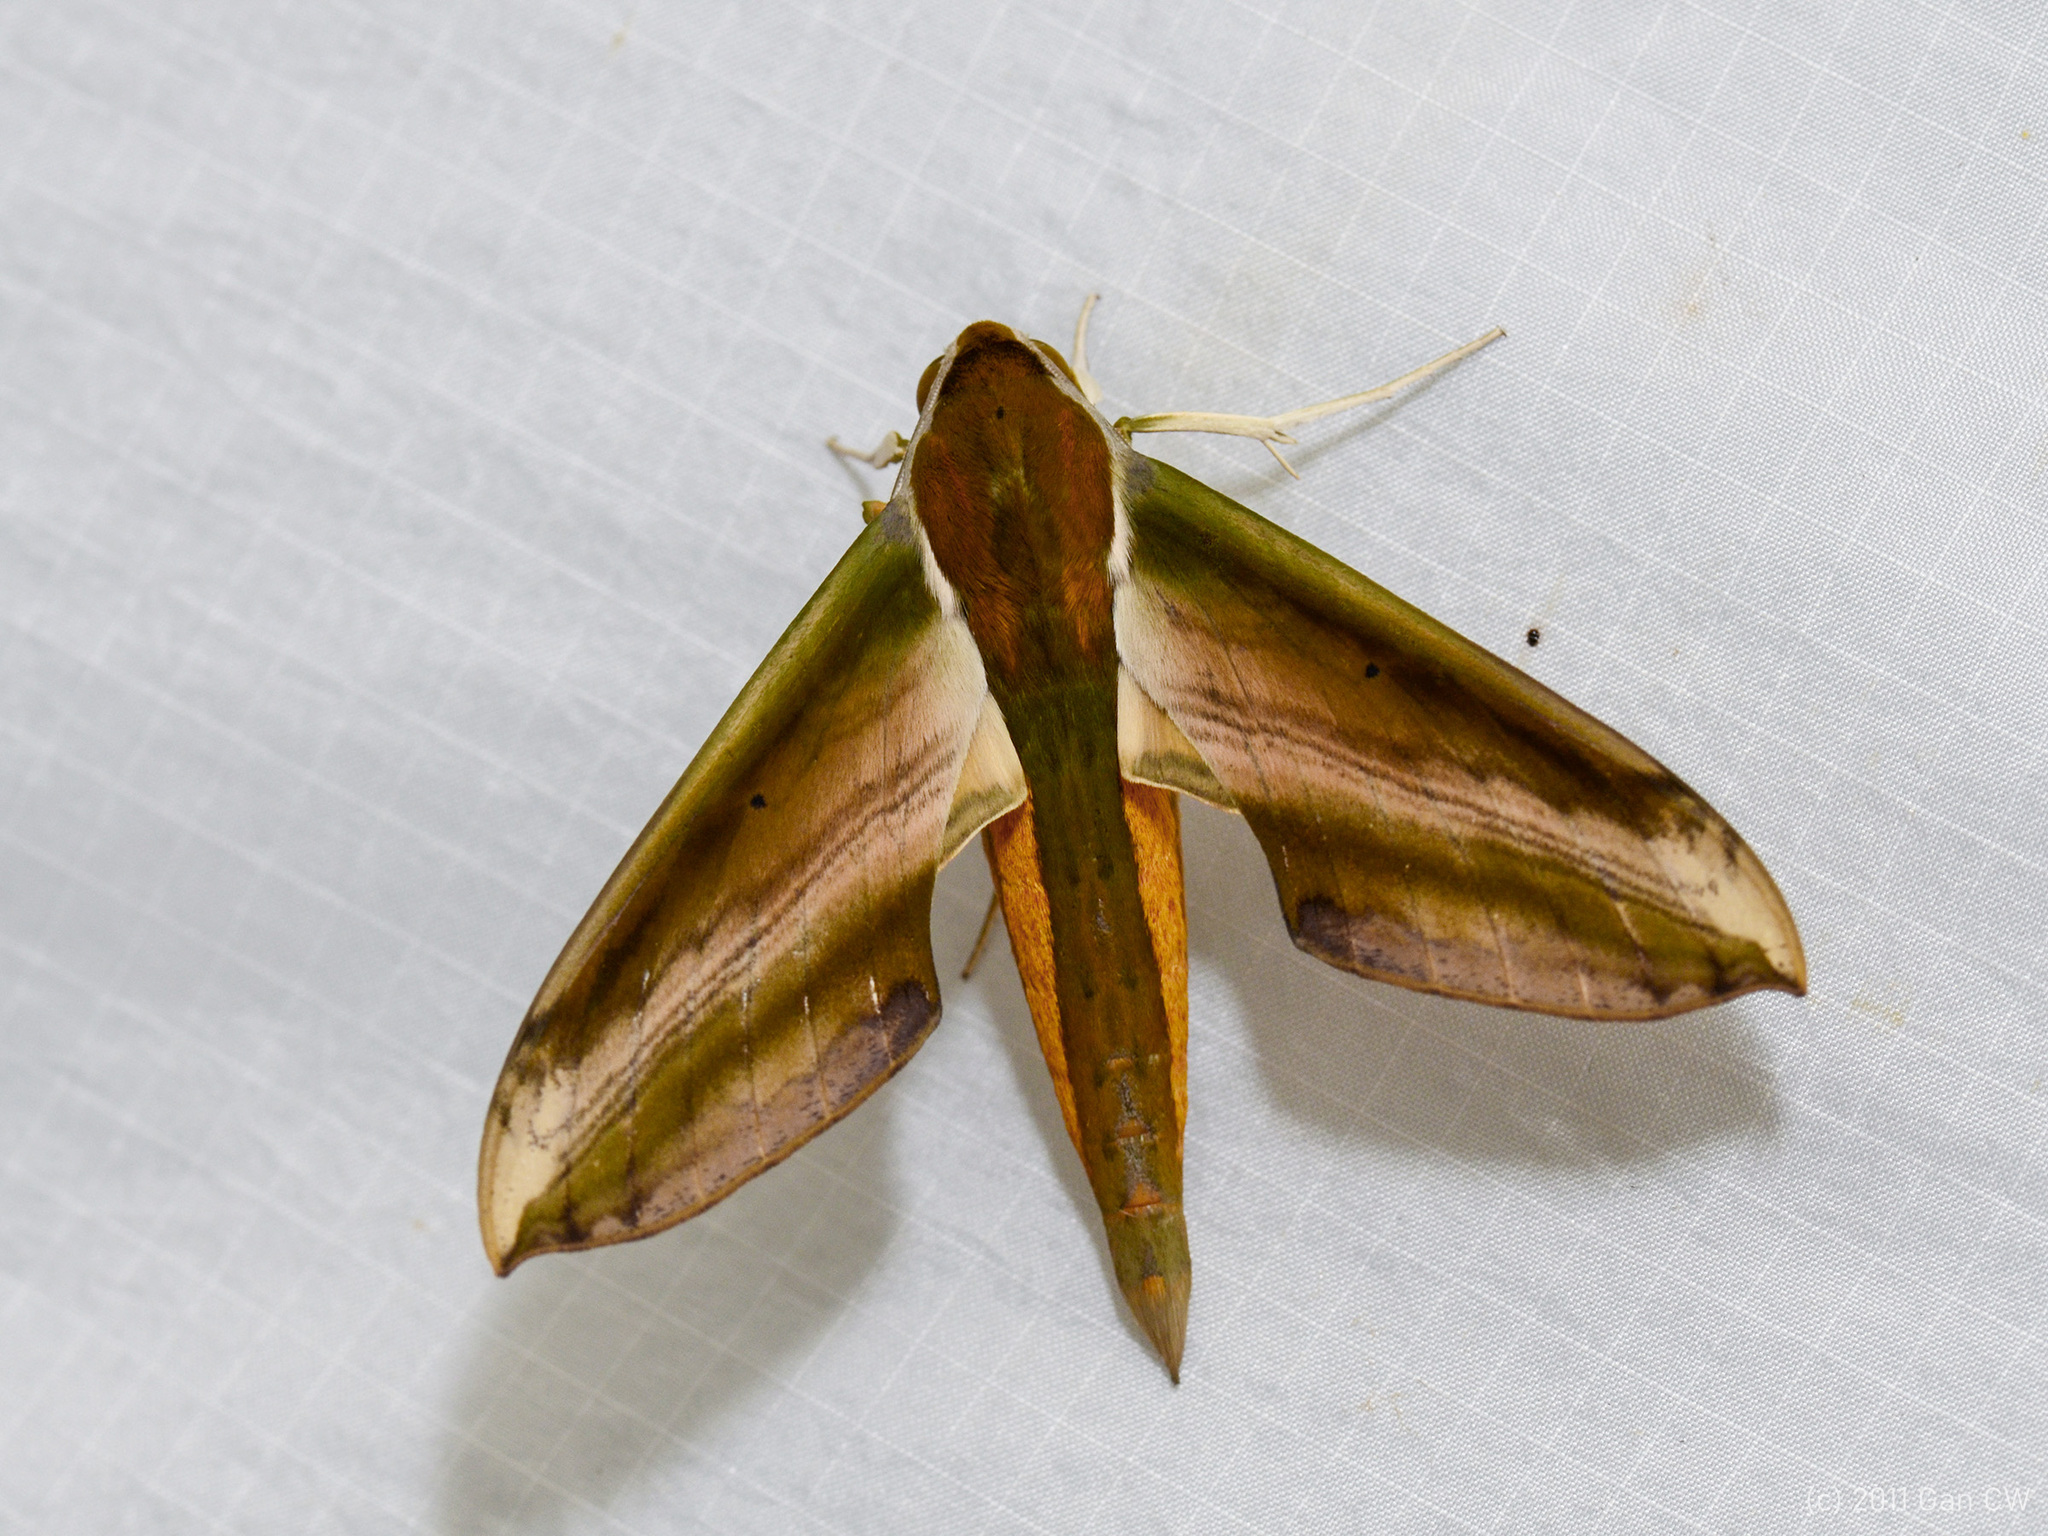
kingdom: Animalia
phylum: Arthropoda
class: Insecta
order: Lepidoptera
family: Sphingidae
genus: Theretra
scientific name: Theretra nessus
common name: Yam hawk moth
